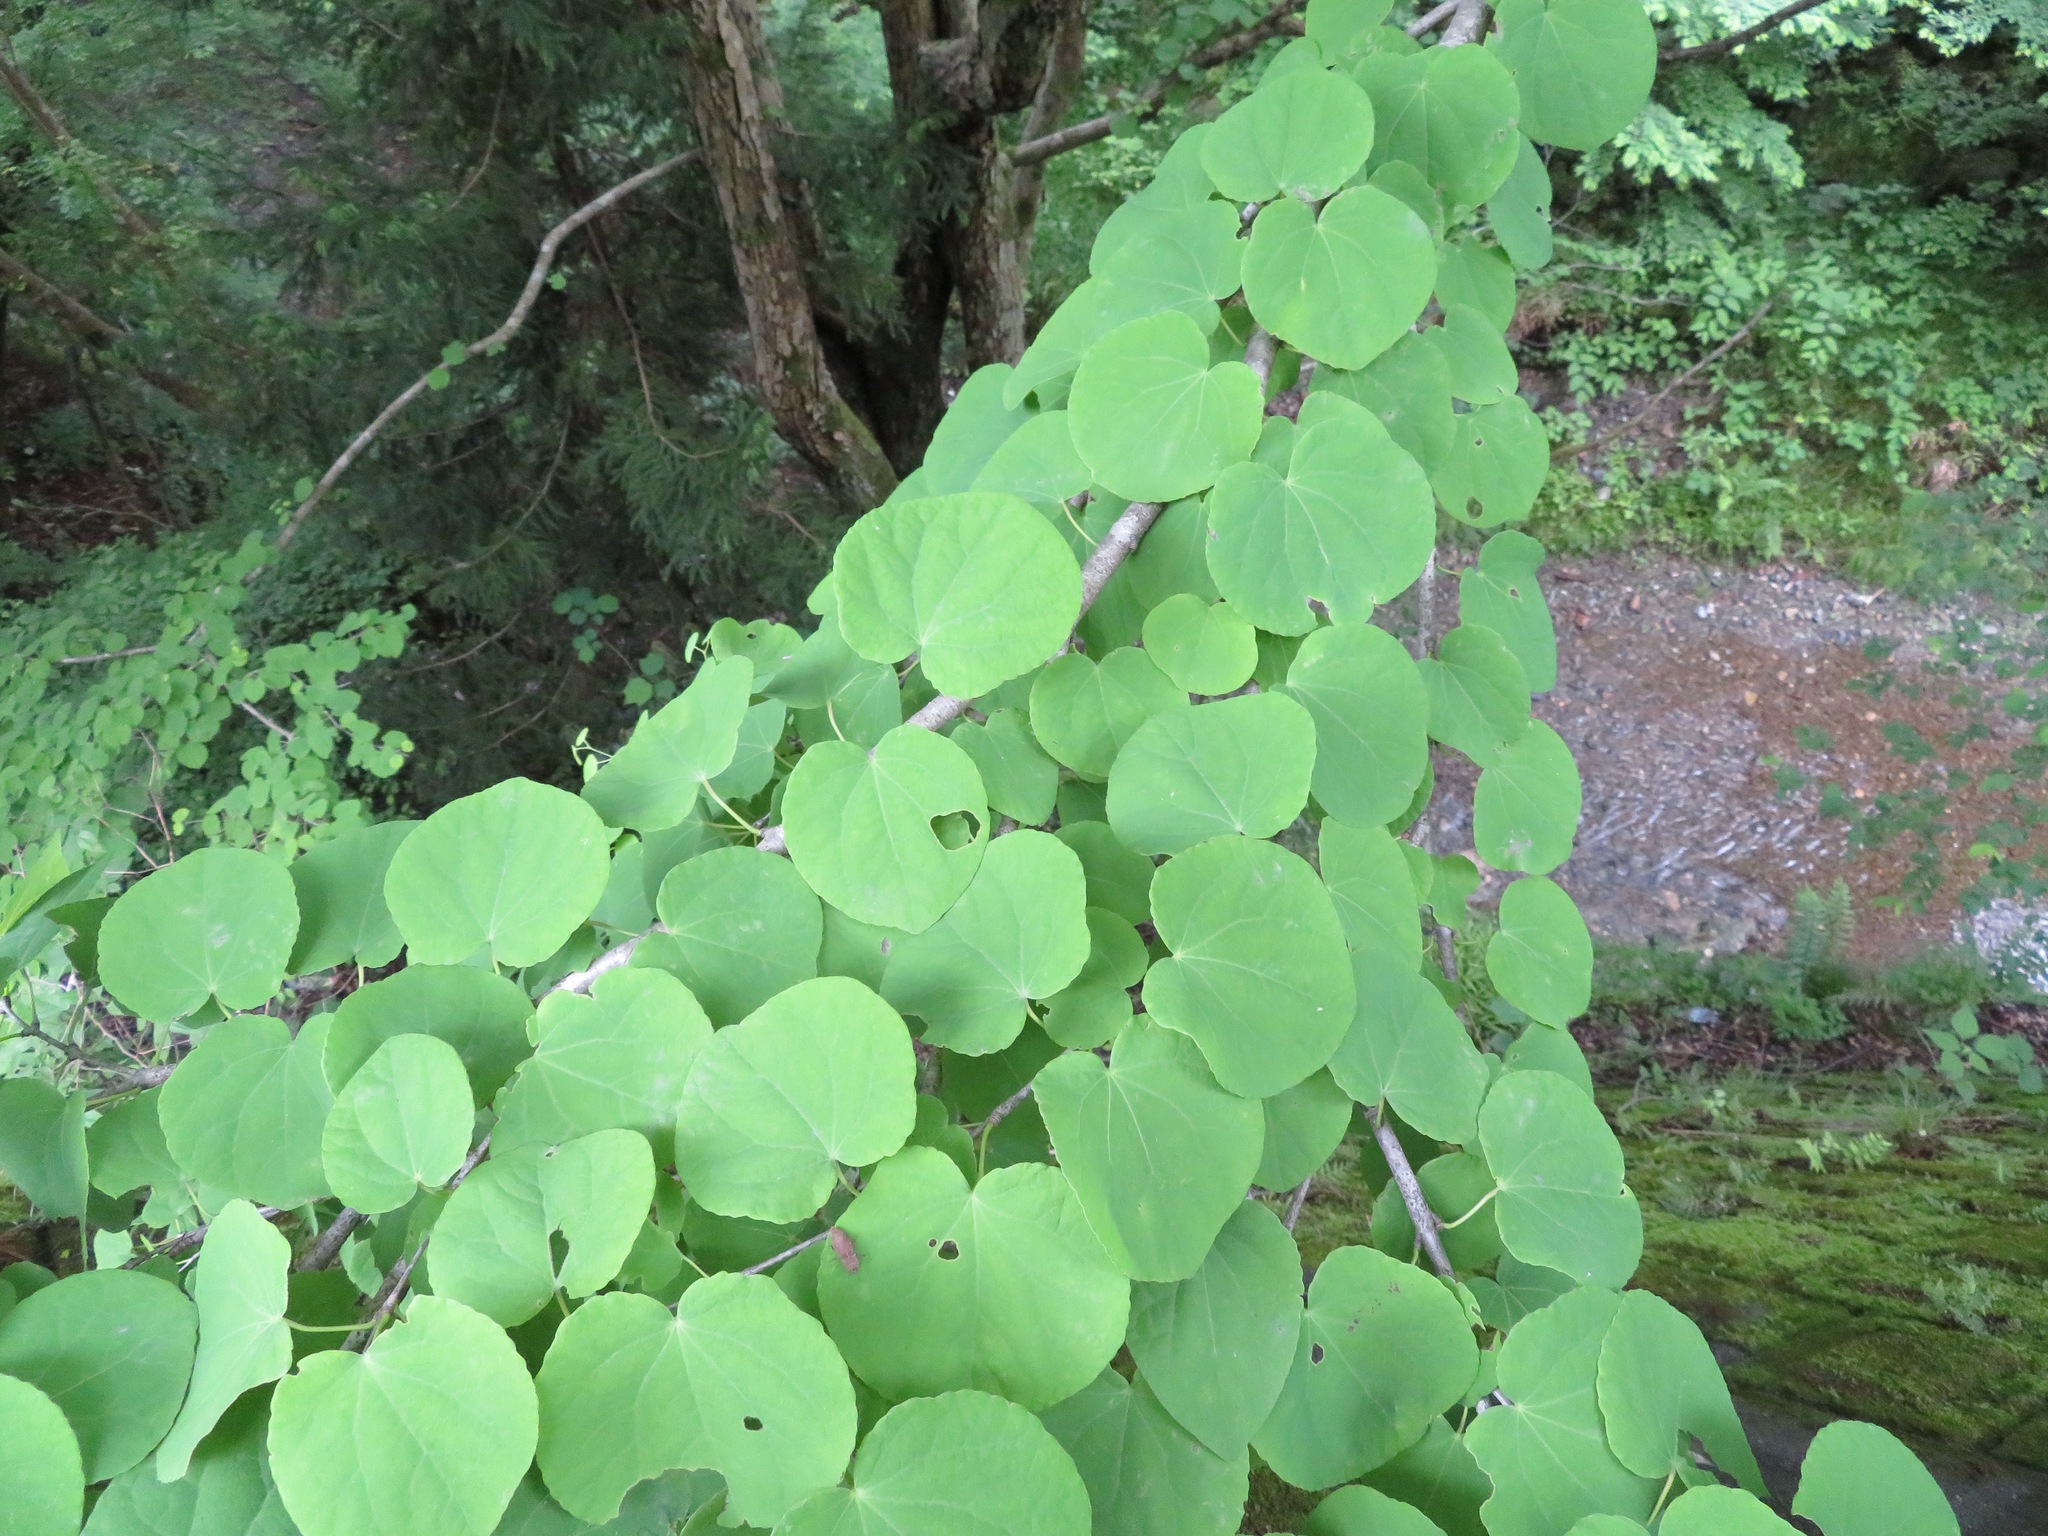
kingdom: Plantae
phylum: Tracheophyta
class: Magnoliopsida
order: Saxifragales
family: Cercidiphyllaceae
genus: Cercidiphyllum
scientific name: Cercidiphyllum japonicum
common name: Katsura tree
